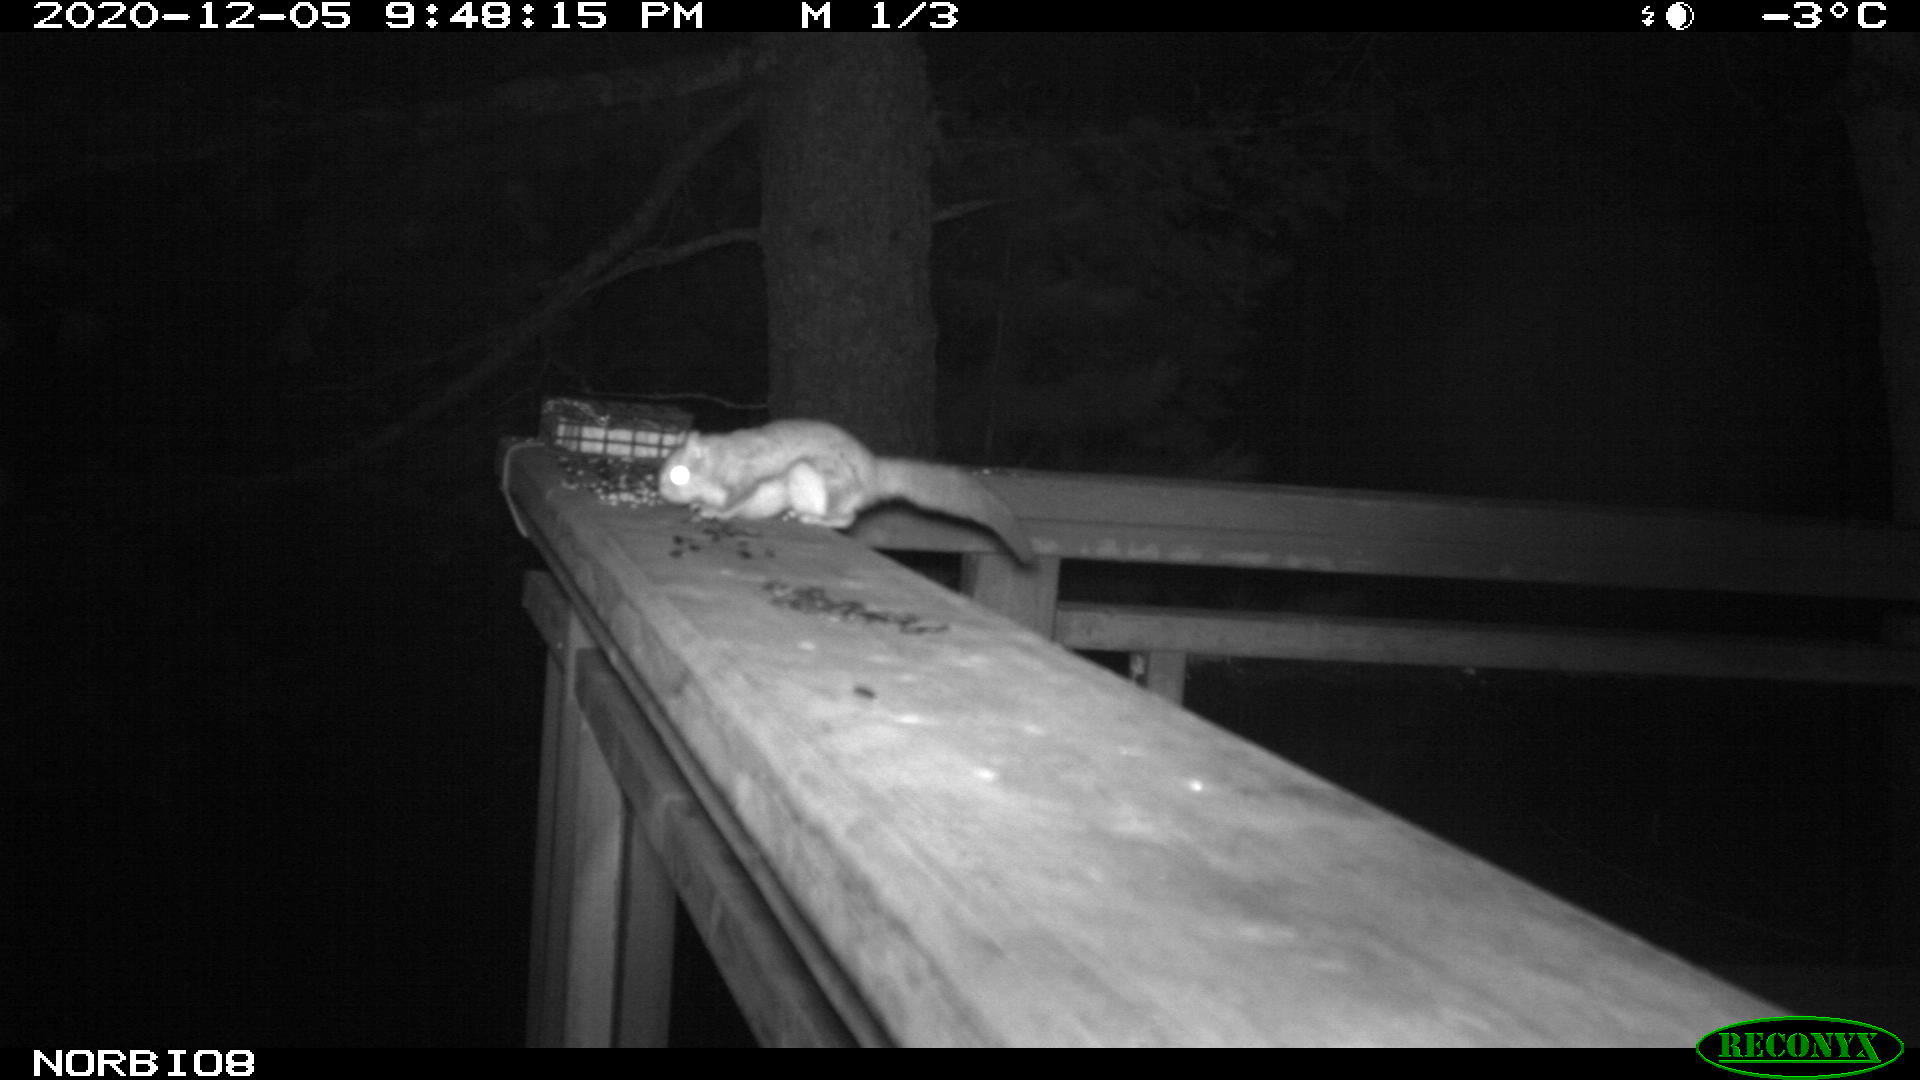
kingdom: Animalia
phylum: Chordata
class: Mammalia
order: Rodentia
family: Sciuridae
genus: Glaucomys
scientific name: Glaucomys sabrinus
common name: Northern flying squirrel
